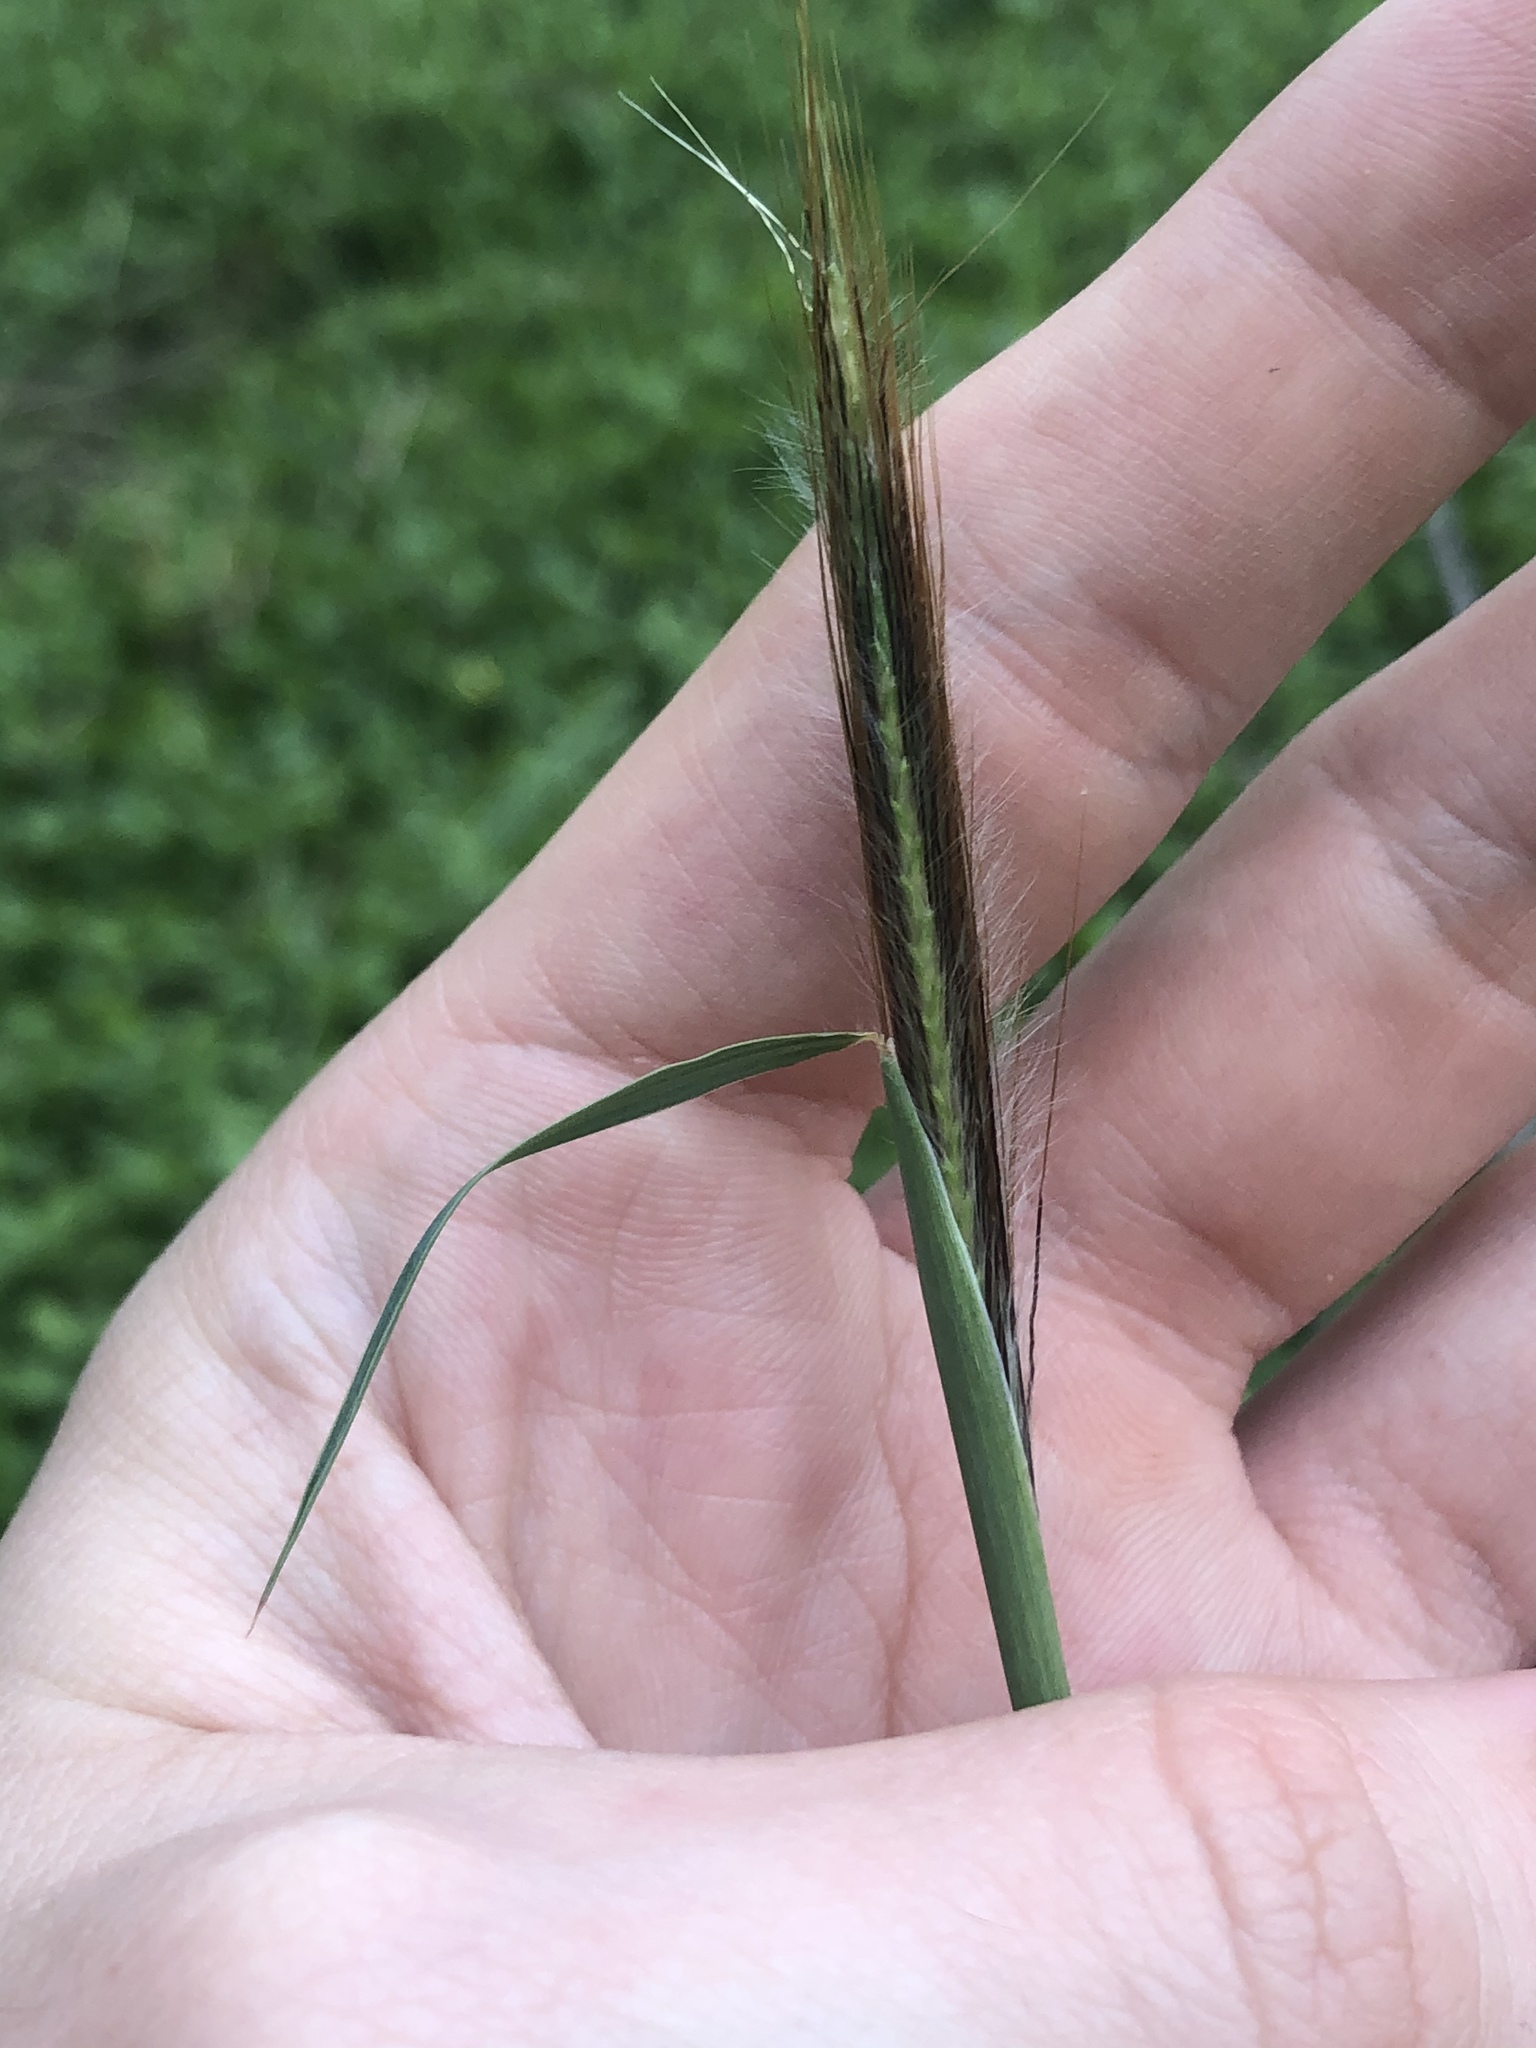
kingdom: Plantae
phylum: Tracheophyta
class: Liliopsida
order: Poales
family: Poaceae
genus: Dichanthium
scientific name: Dichanthium sericeum
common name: Silky bluestem
